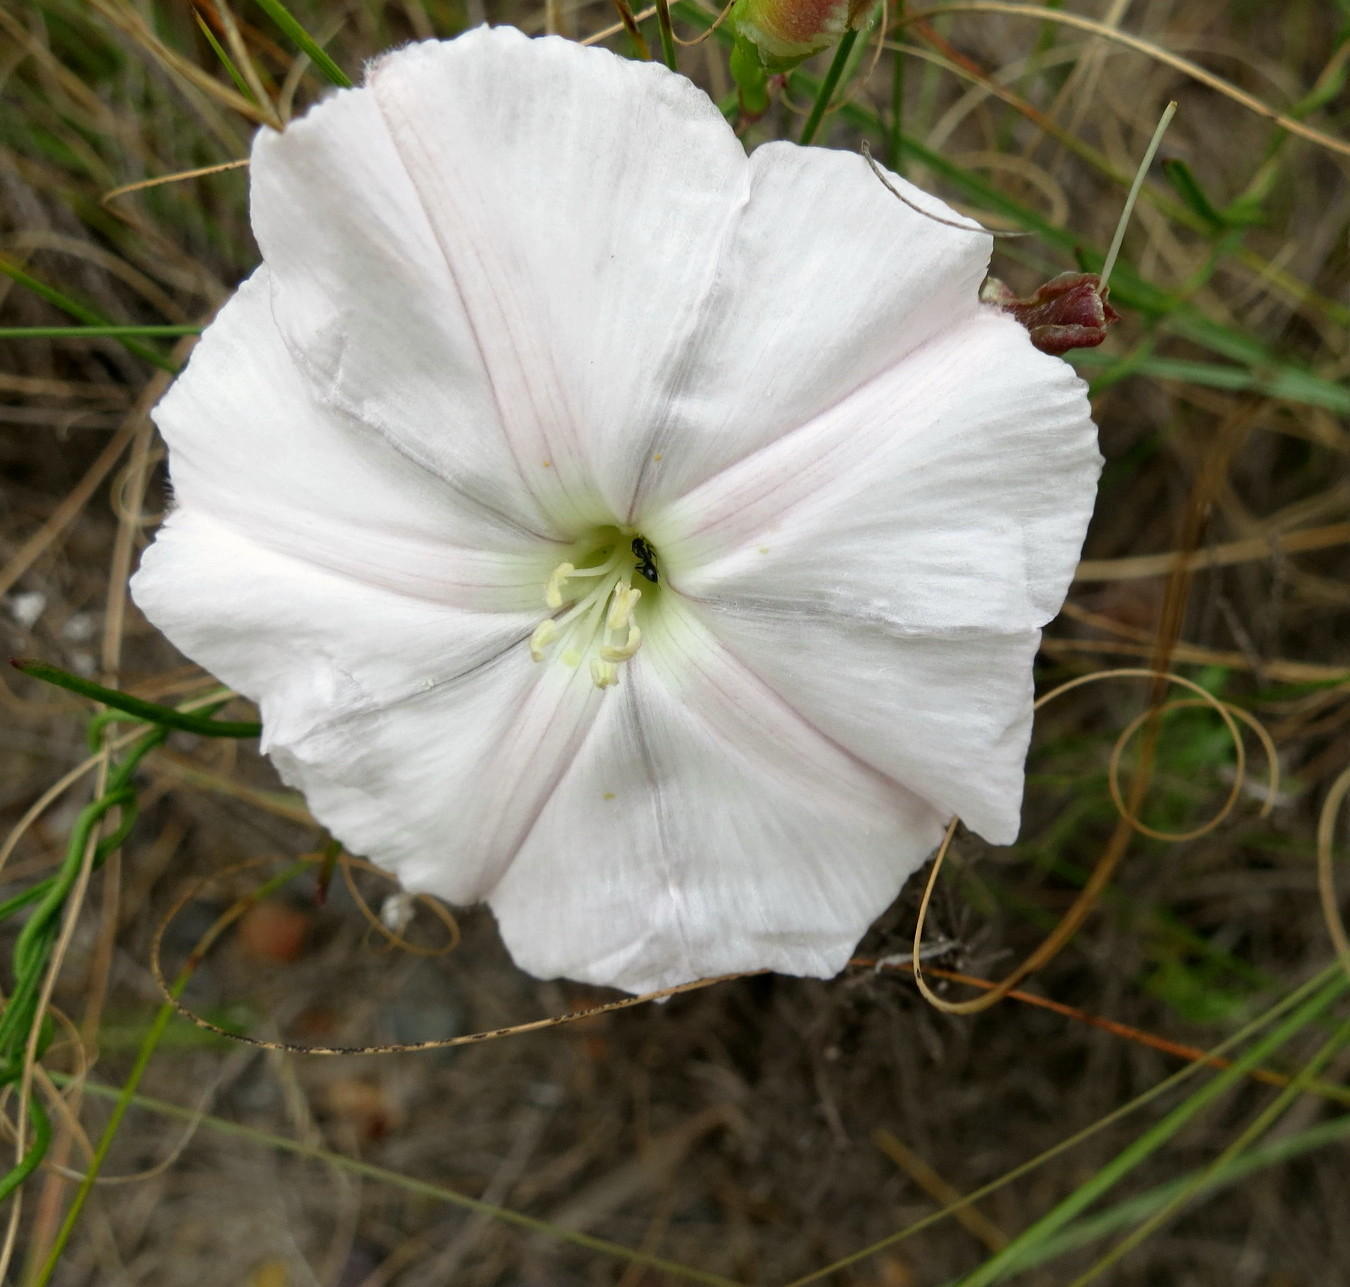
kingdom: Plantae
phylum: Tracheophyta
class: Magnoliopsida
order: Solanales
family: Convolvulaceae
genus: Convolvulus
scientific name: Convolvulus capensis
